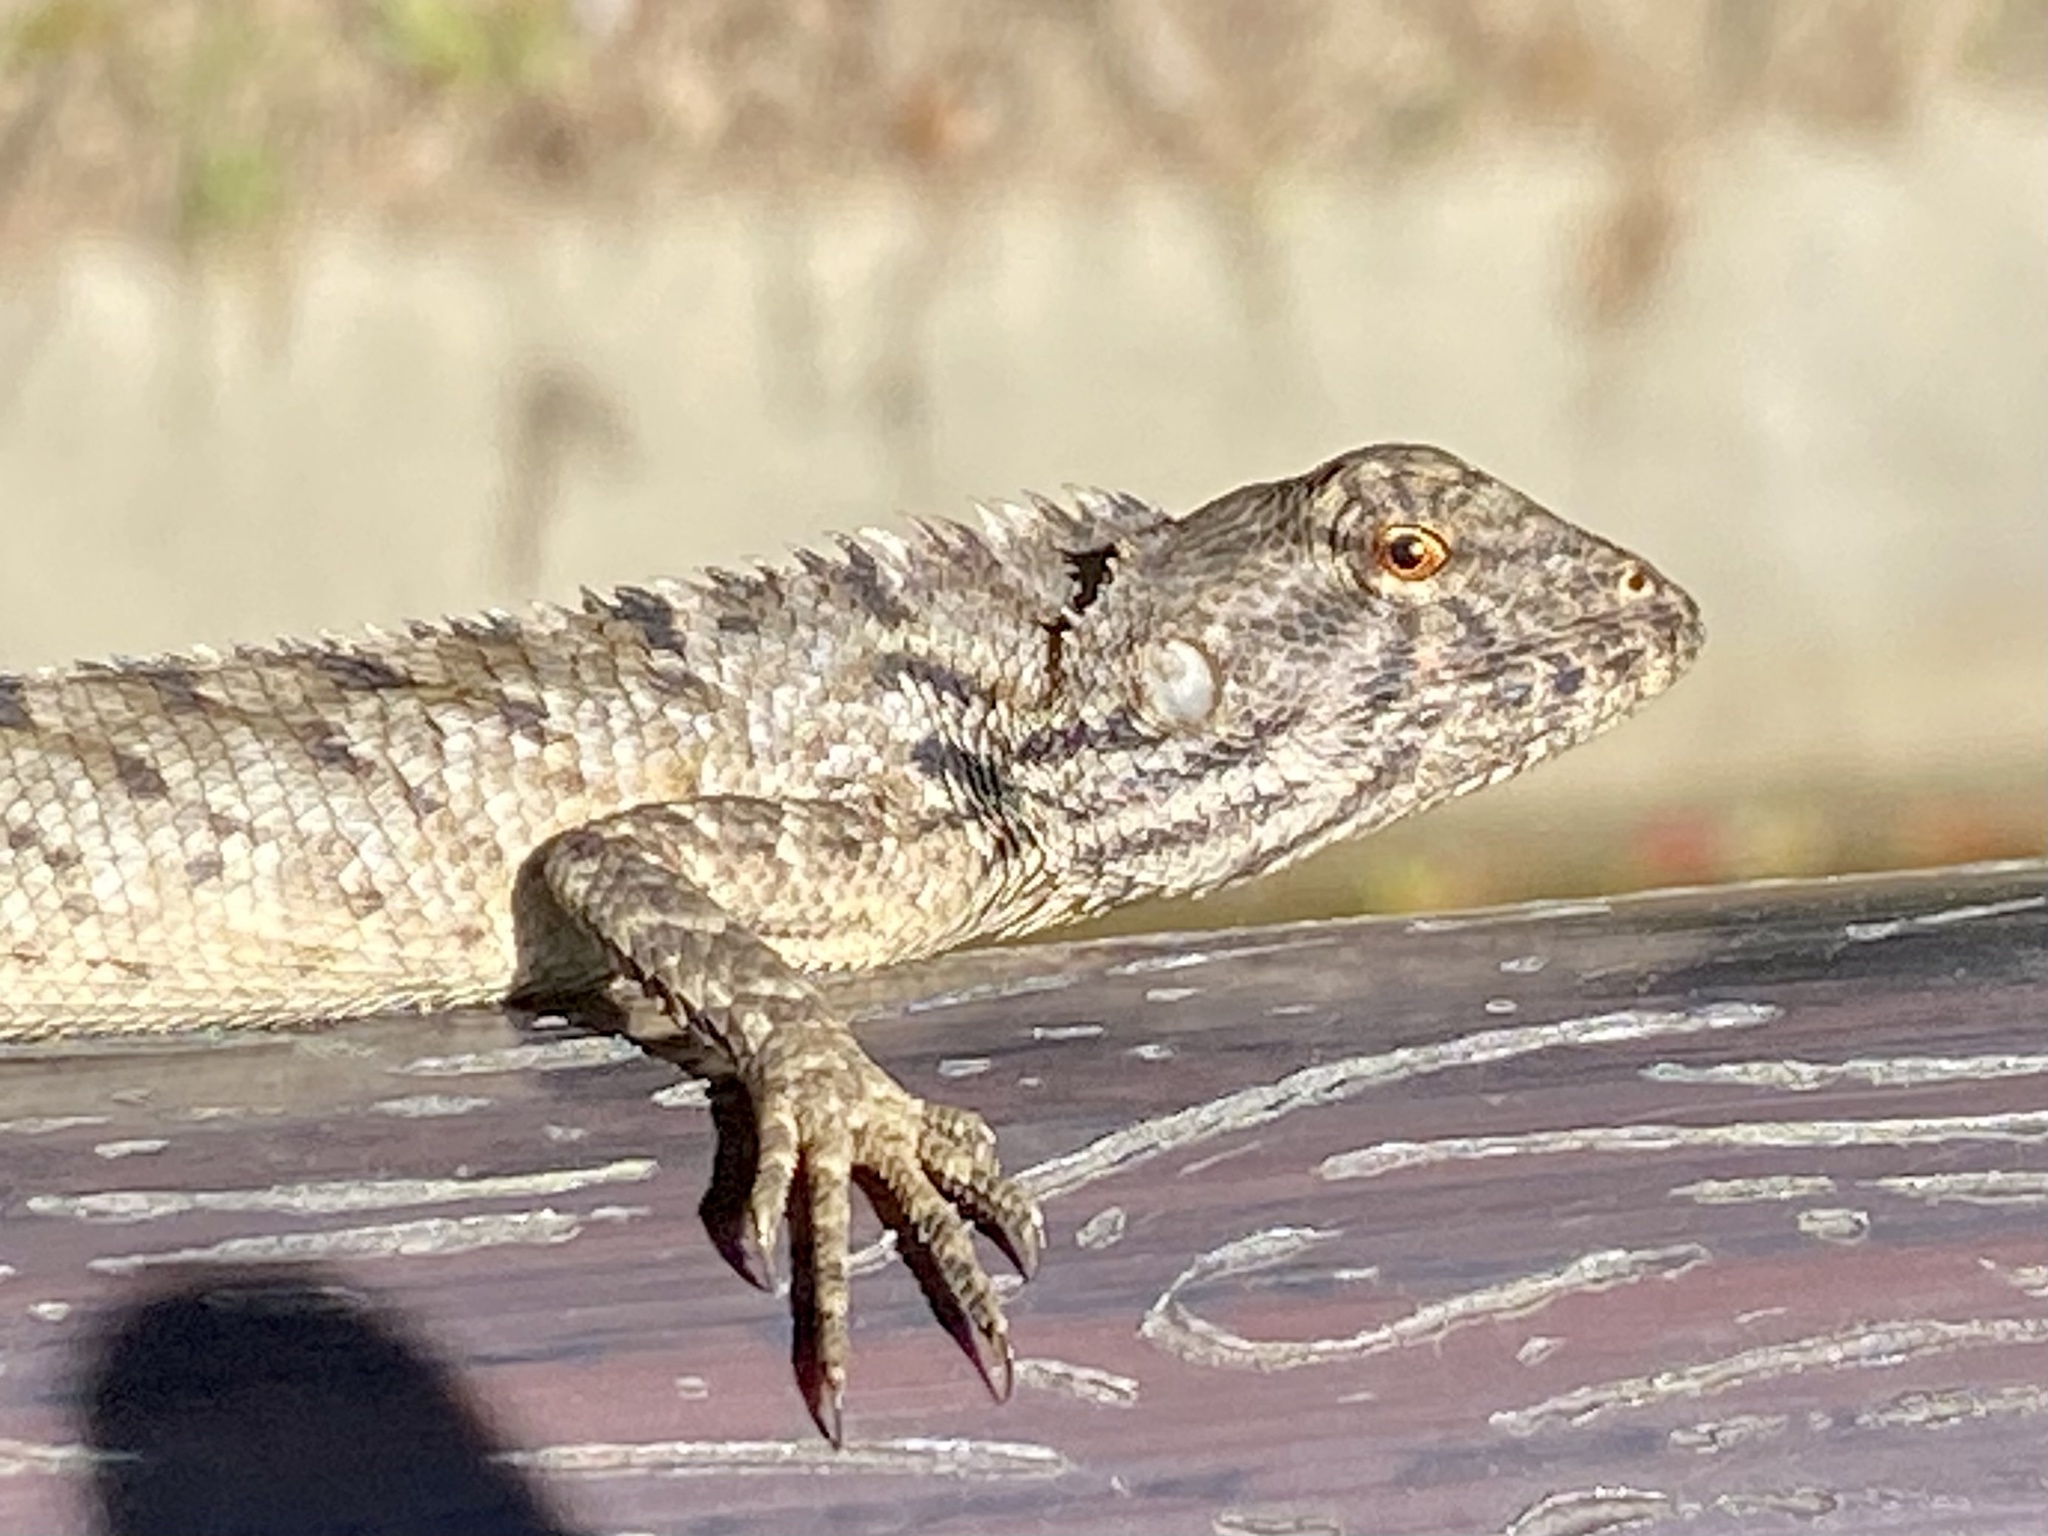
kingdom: Animalia
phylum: Chordata
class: Squamata
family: Agamidae
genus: Calotes
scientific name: Calotes versicolor
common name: Oriental garden lizard
